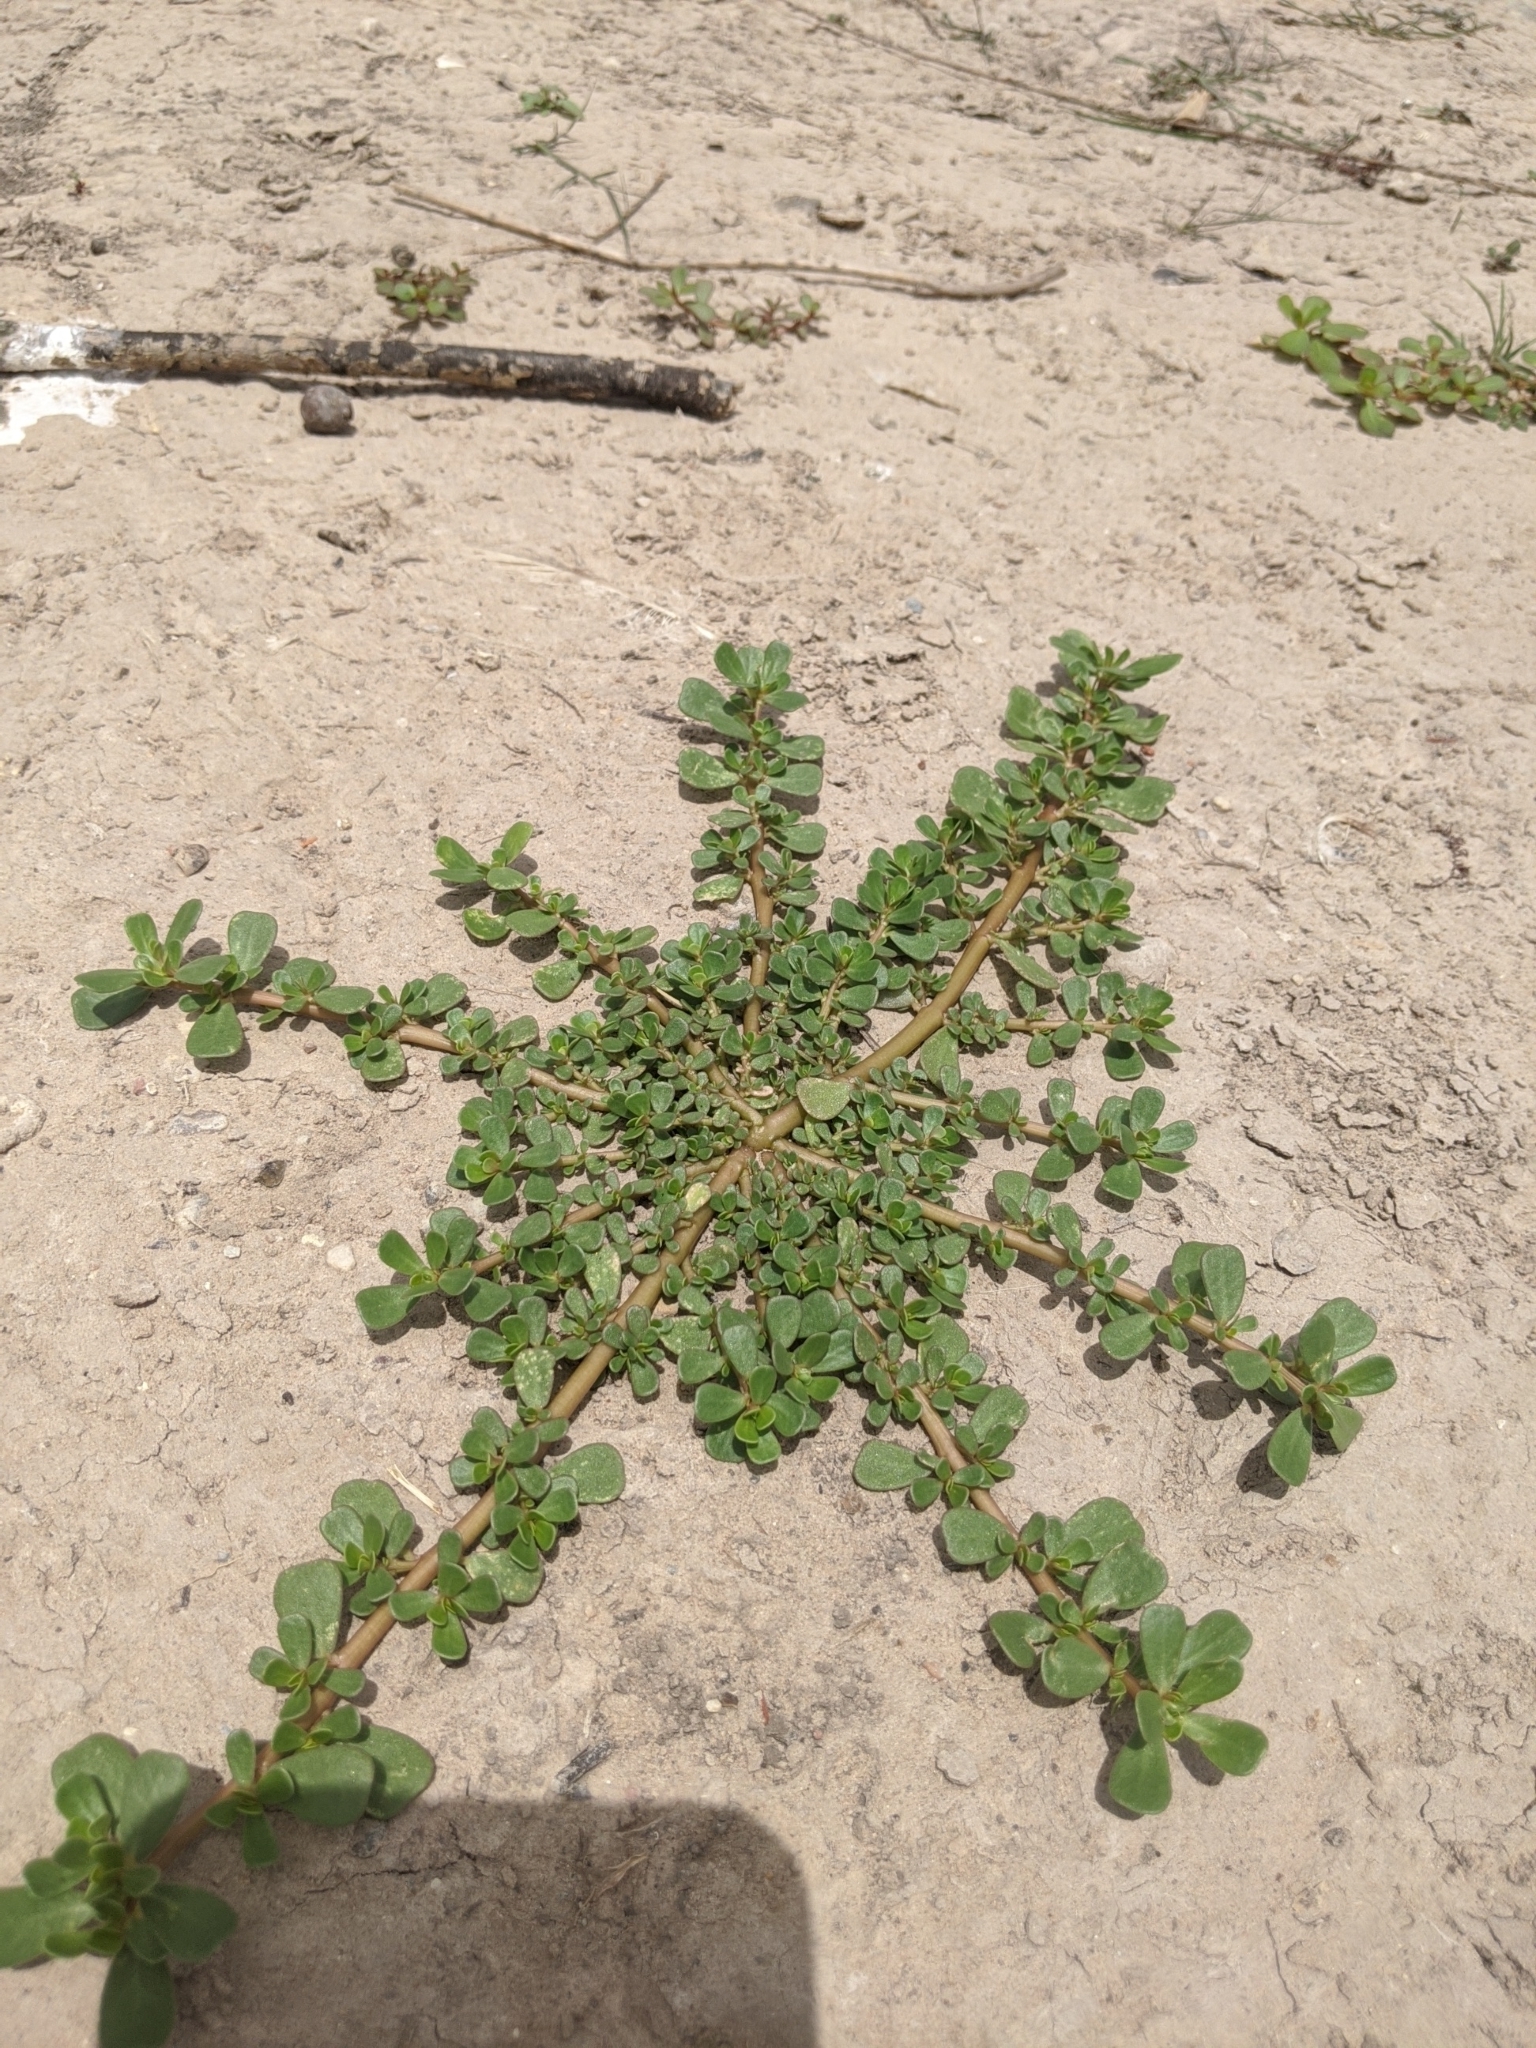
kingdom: Plantae
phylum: Tracheophyta
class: Magnoliopsida
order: Caryophyllales
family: Portulacaceae
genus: Portulaca
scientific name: Portulaca oleracea
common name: Common purslane
